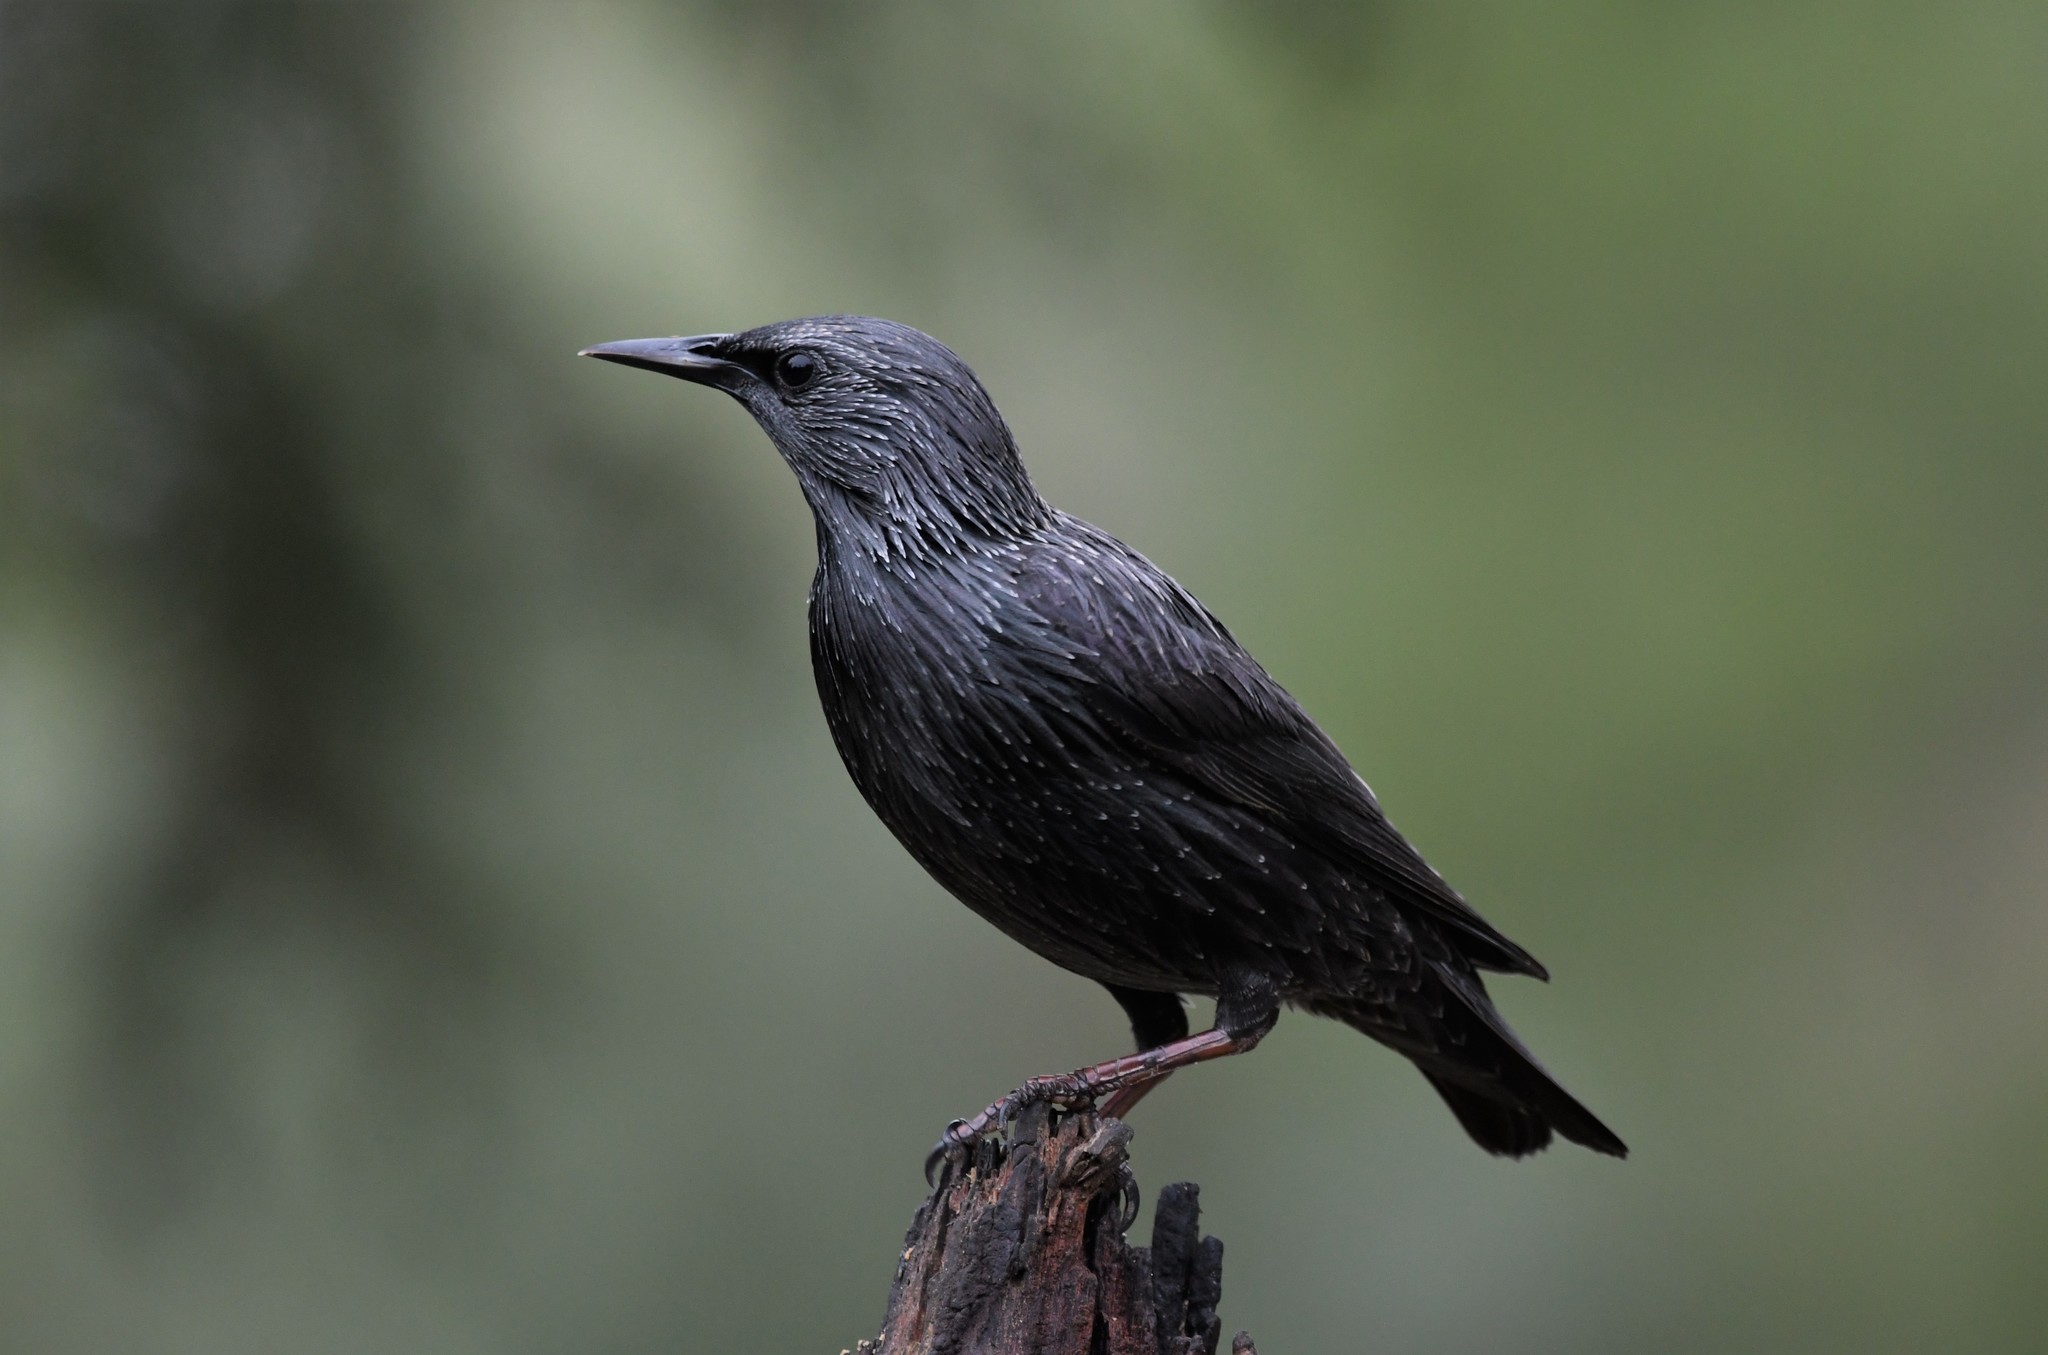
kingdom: Animalia
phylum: Chordata
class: Aves
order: Passeriformes
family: Sturnidae
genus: Sturnus
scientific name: Sturnus unicolor
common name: Spotless starling
